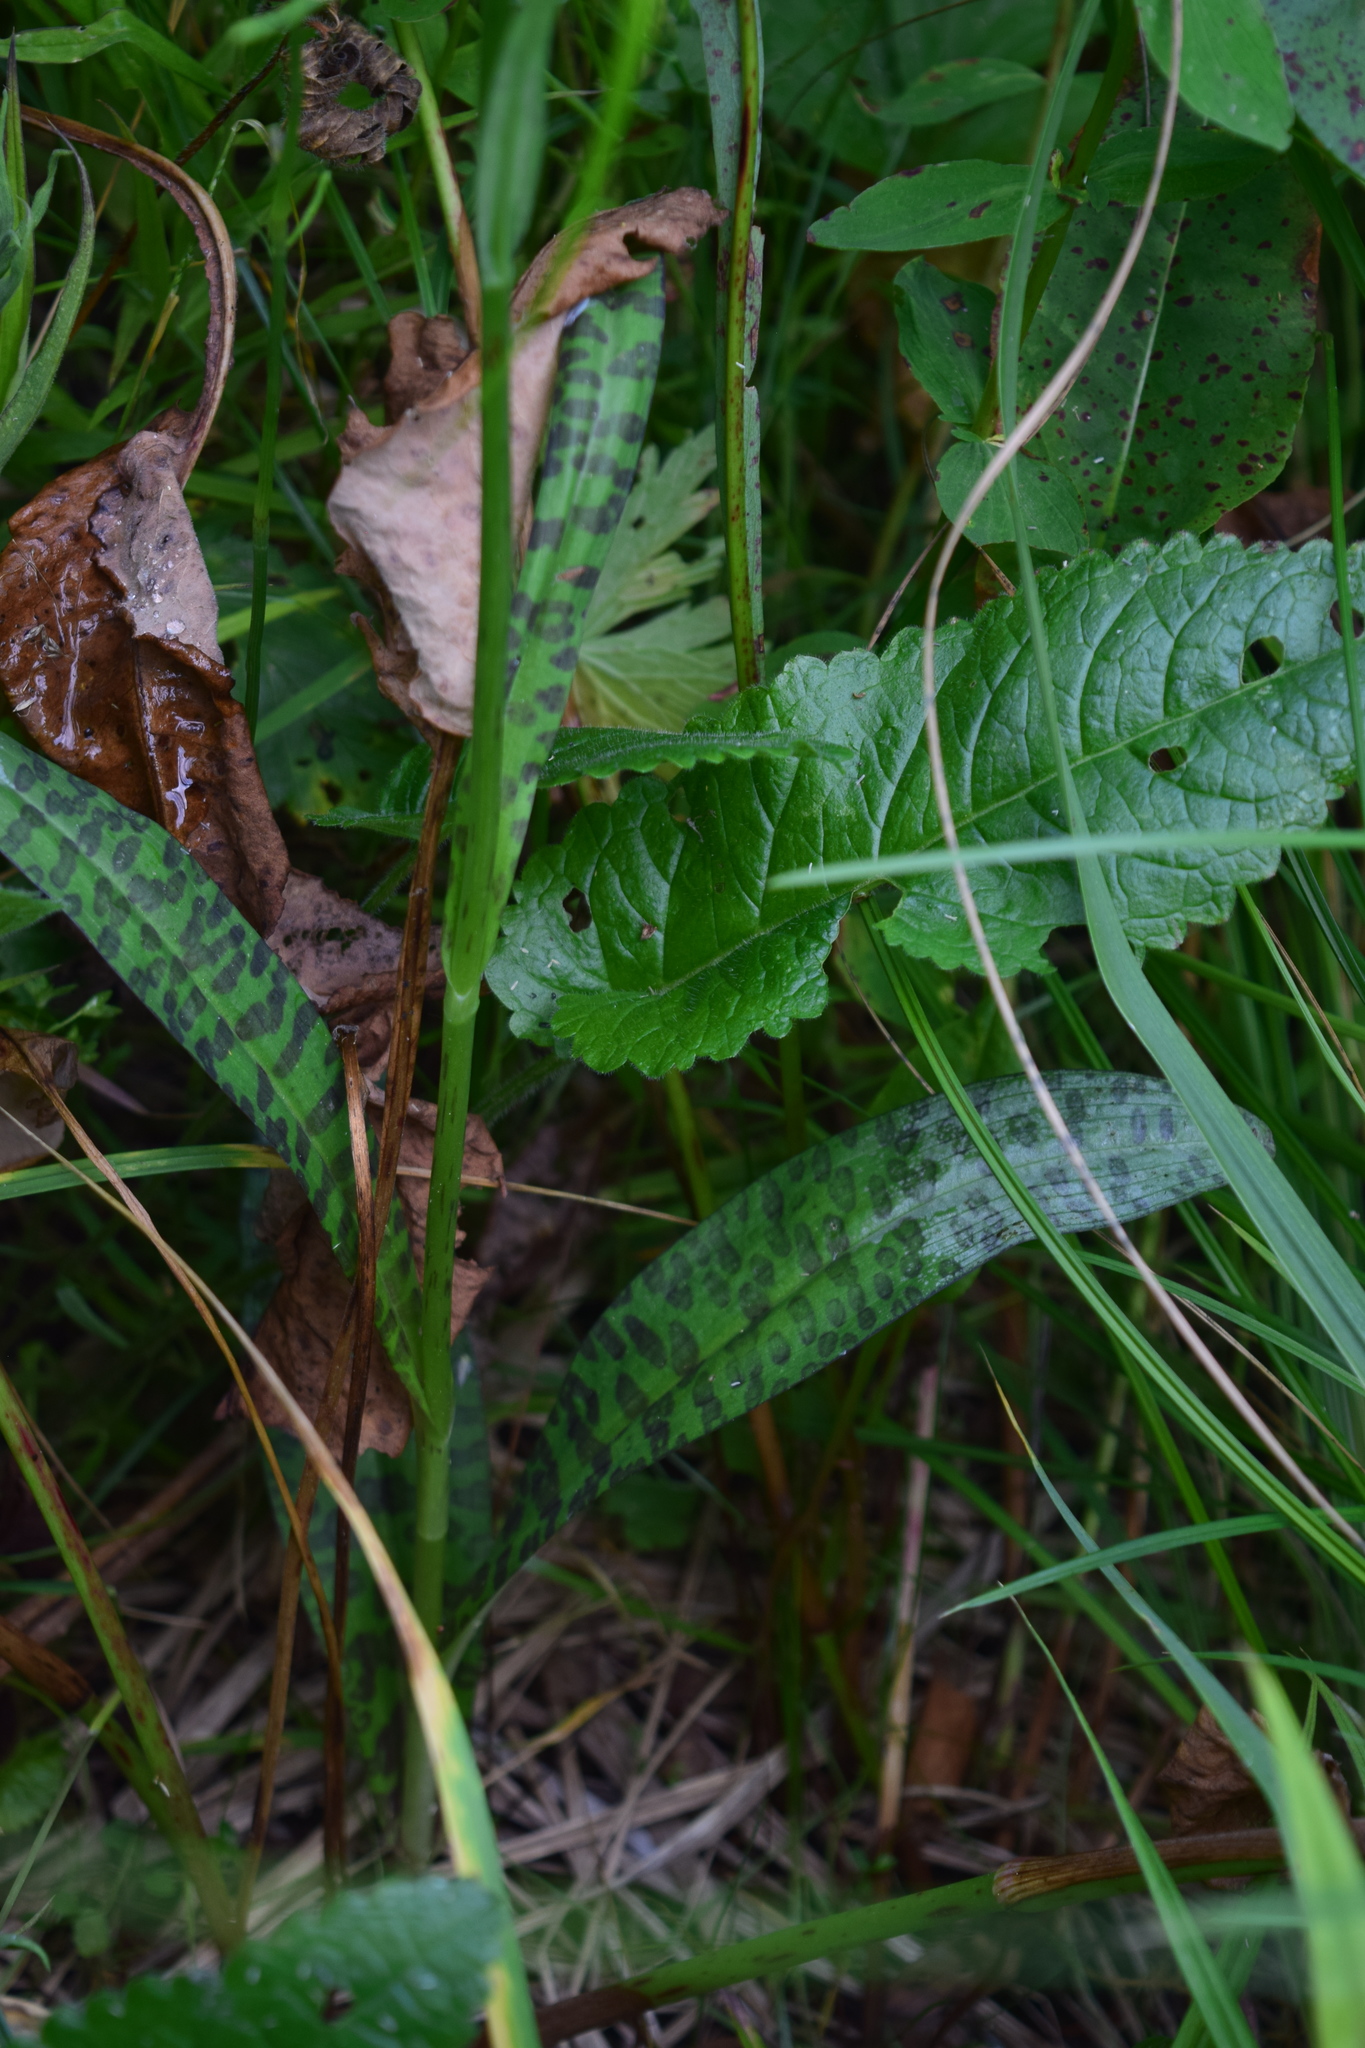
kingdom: Plantae
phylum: Tracheophyta
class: Liliopsida
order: Asparagales
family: Orchidaceae
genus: Dactylorhiza
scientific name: Dactylorhiza maculata
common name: Heath spotted-orchid
